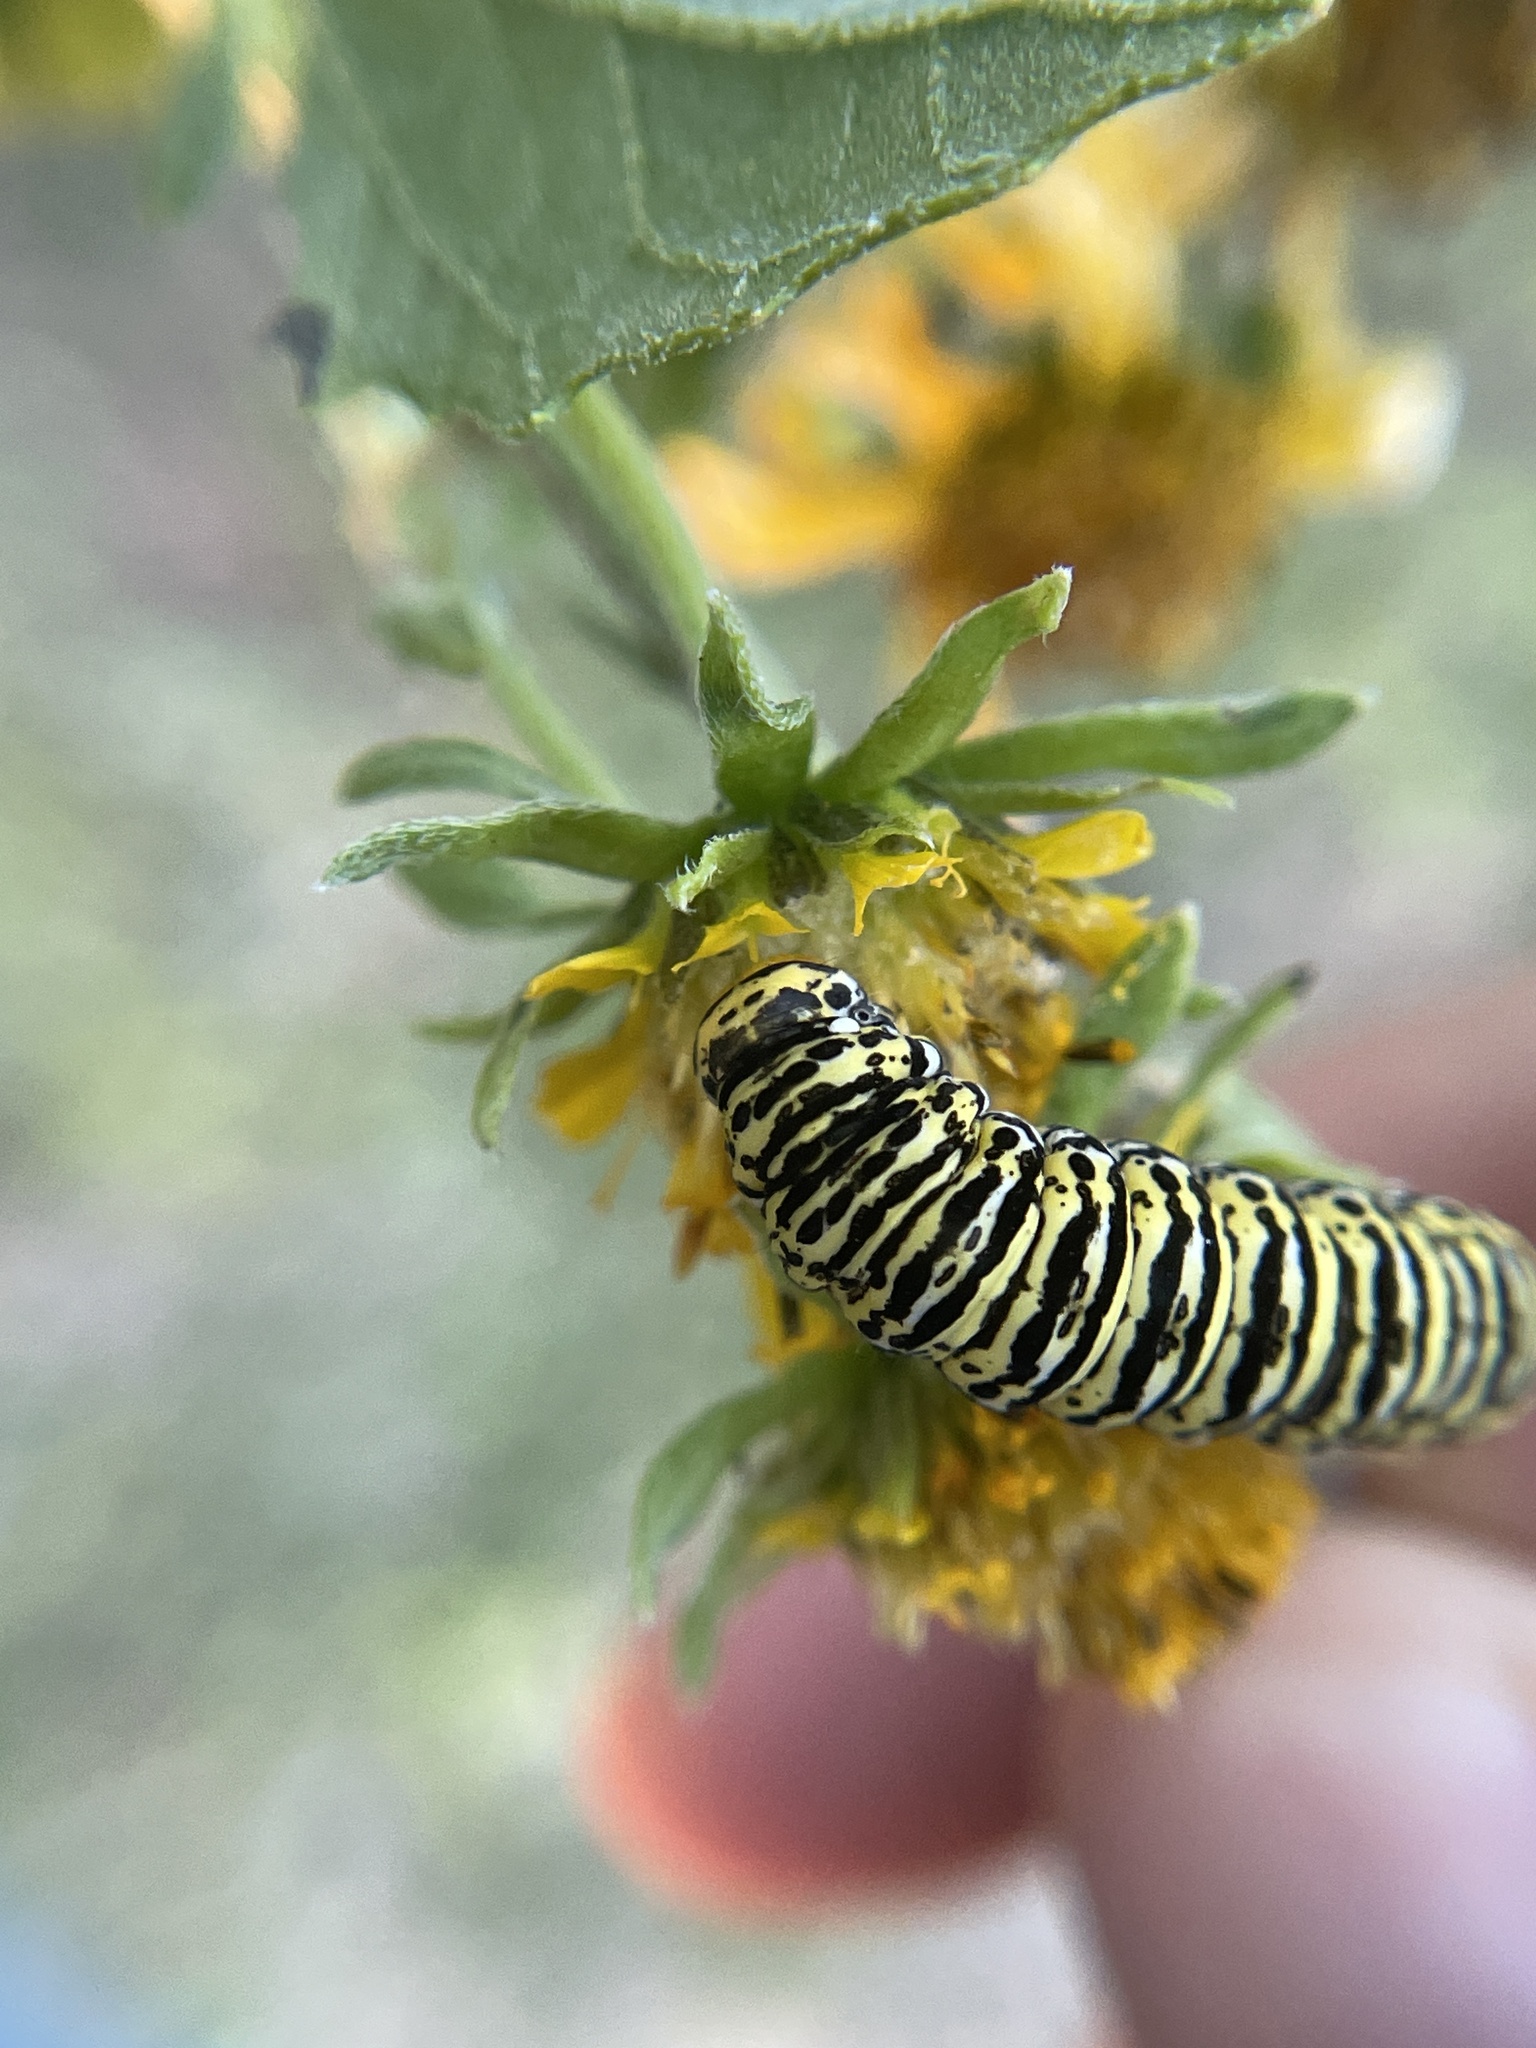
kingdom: Animalia
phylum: Arthropoda
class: Insecta
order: Lepidoptera
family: Noctuidae
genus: Basilodes
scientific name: Basilodes chrysopis
